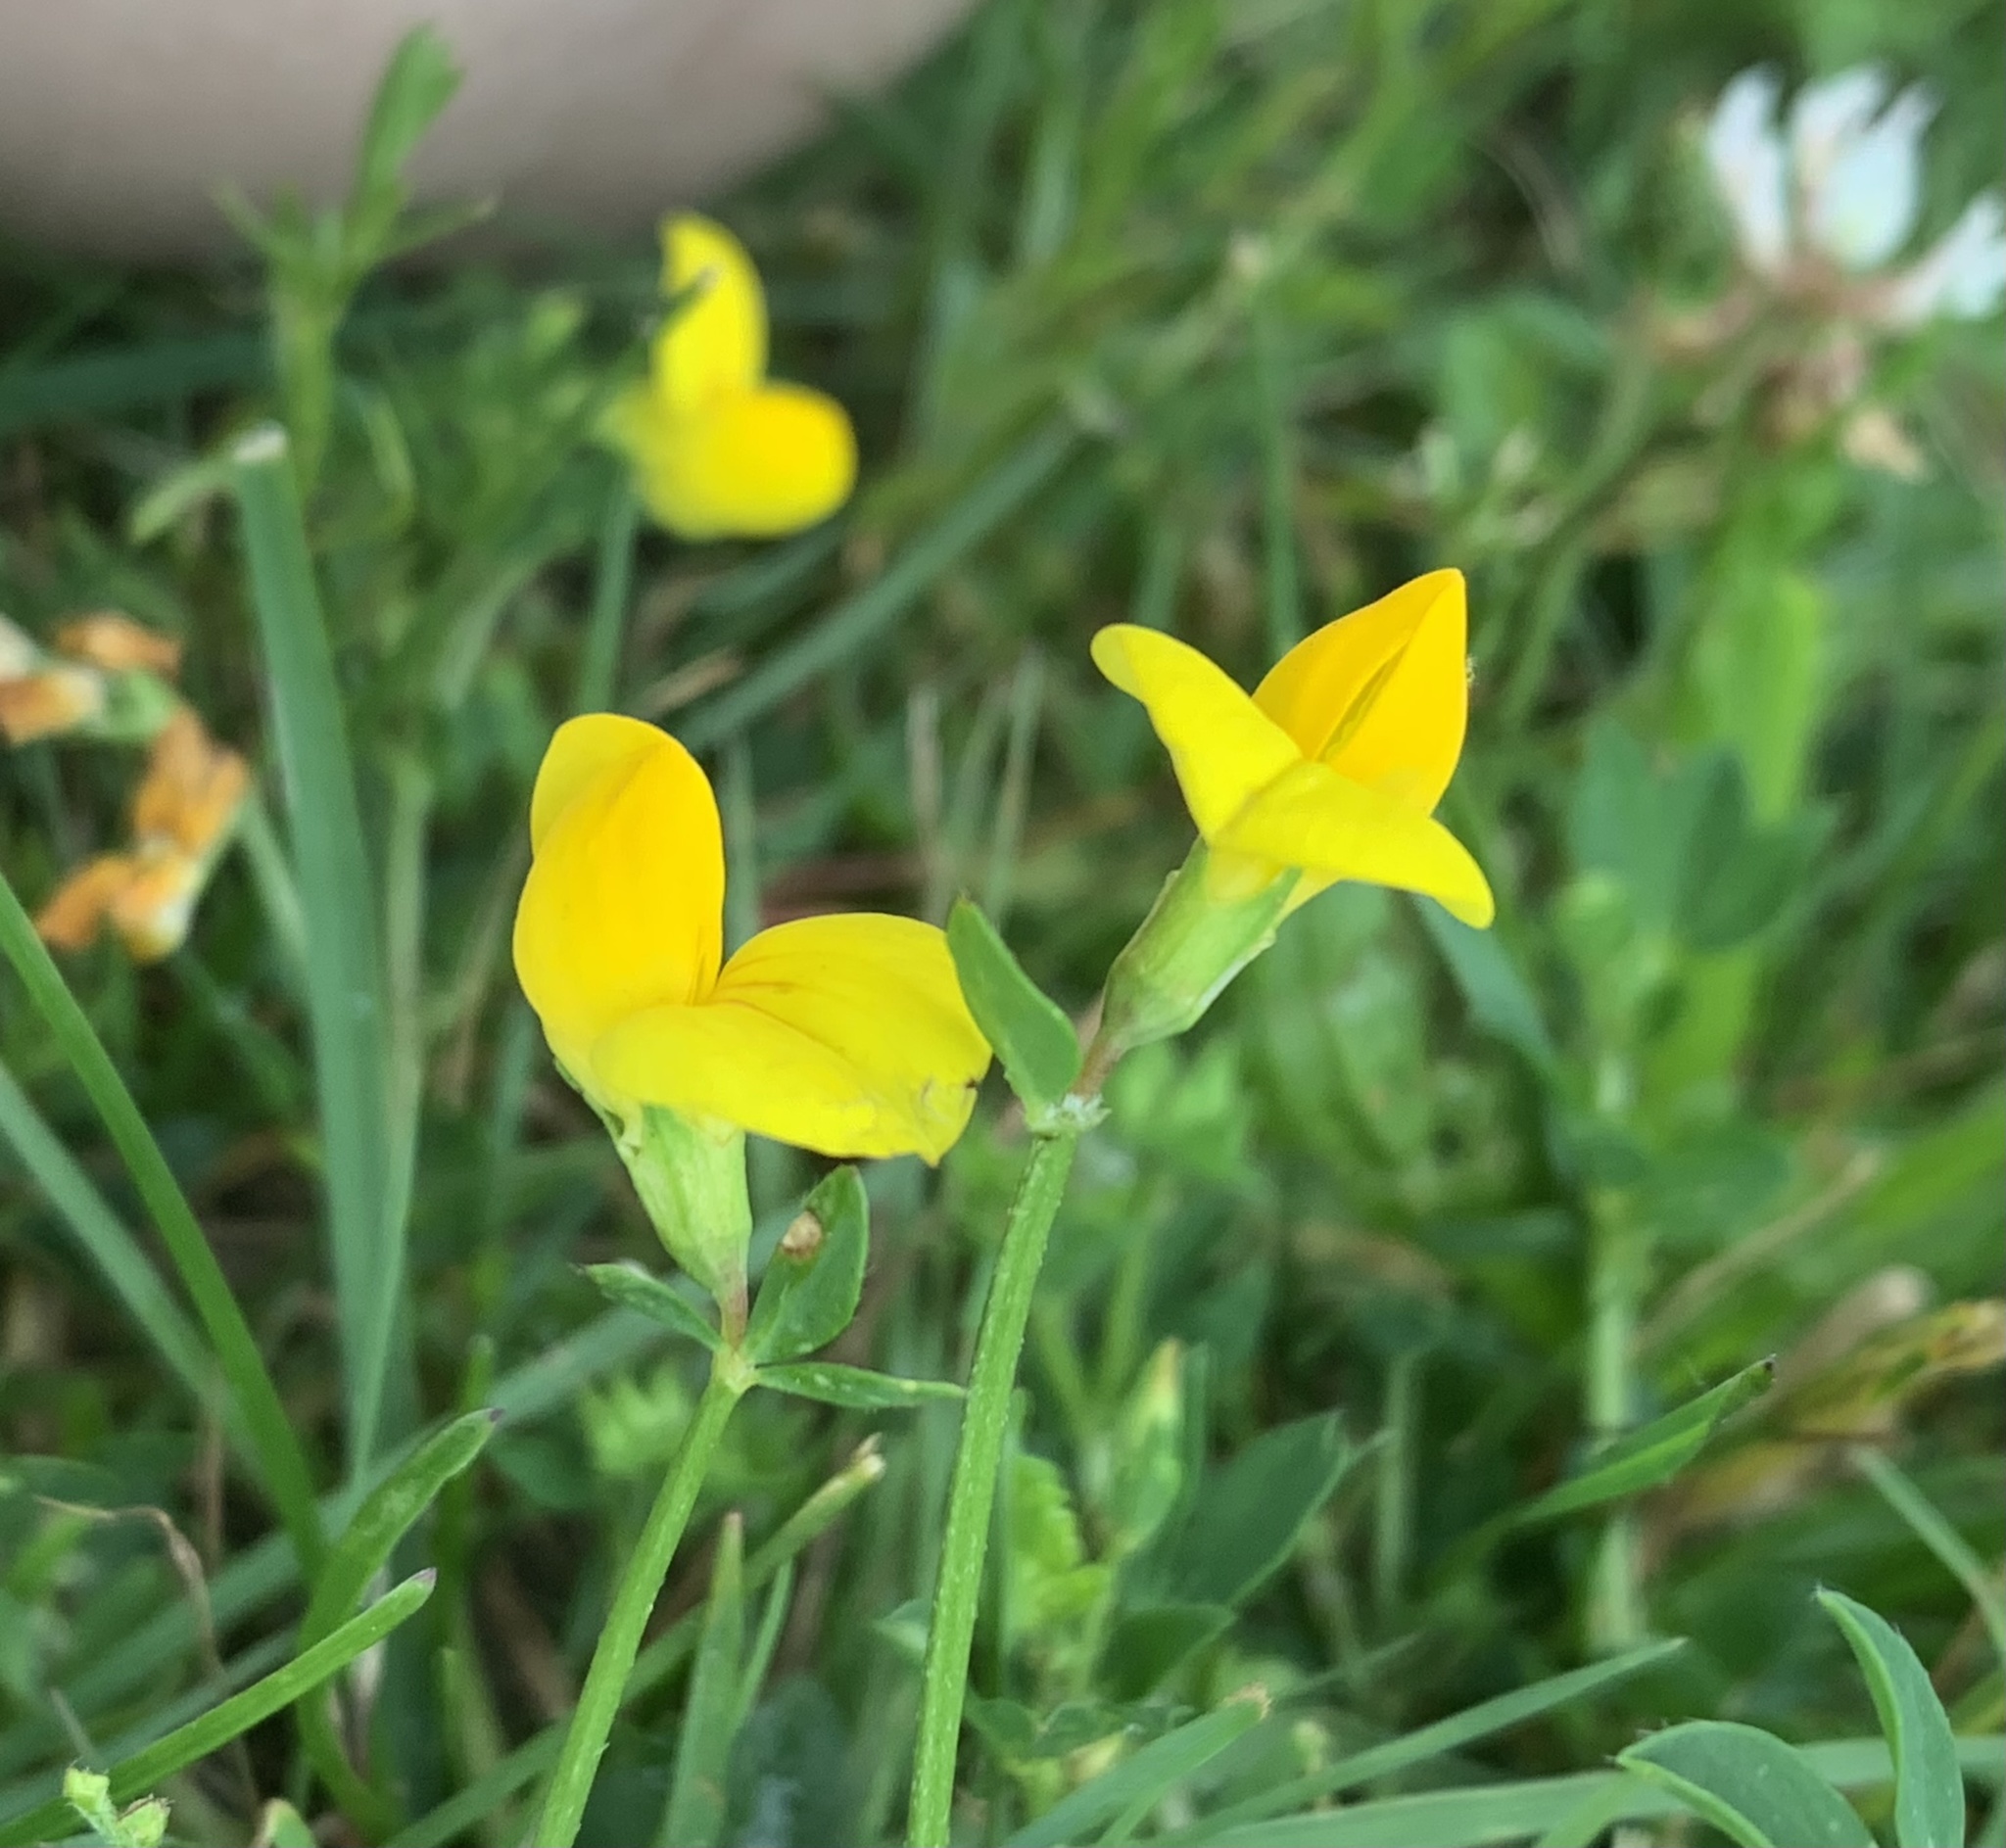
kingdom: Plantae
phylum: Tracheophyta
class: Magnoliopsida
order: Fabales
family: Fabaceae
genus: Lotus
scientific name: Lotus corniculatus
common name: Common bird's-foot-trefoil
